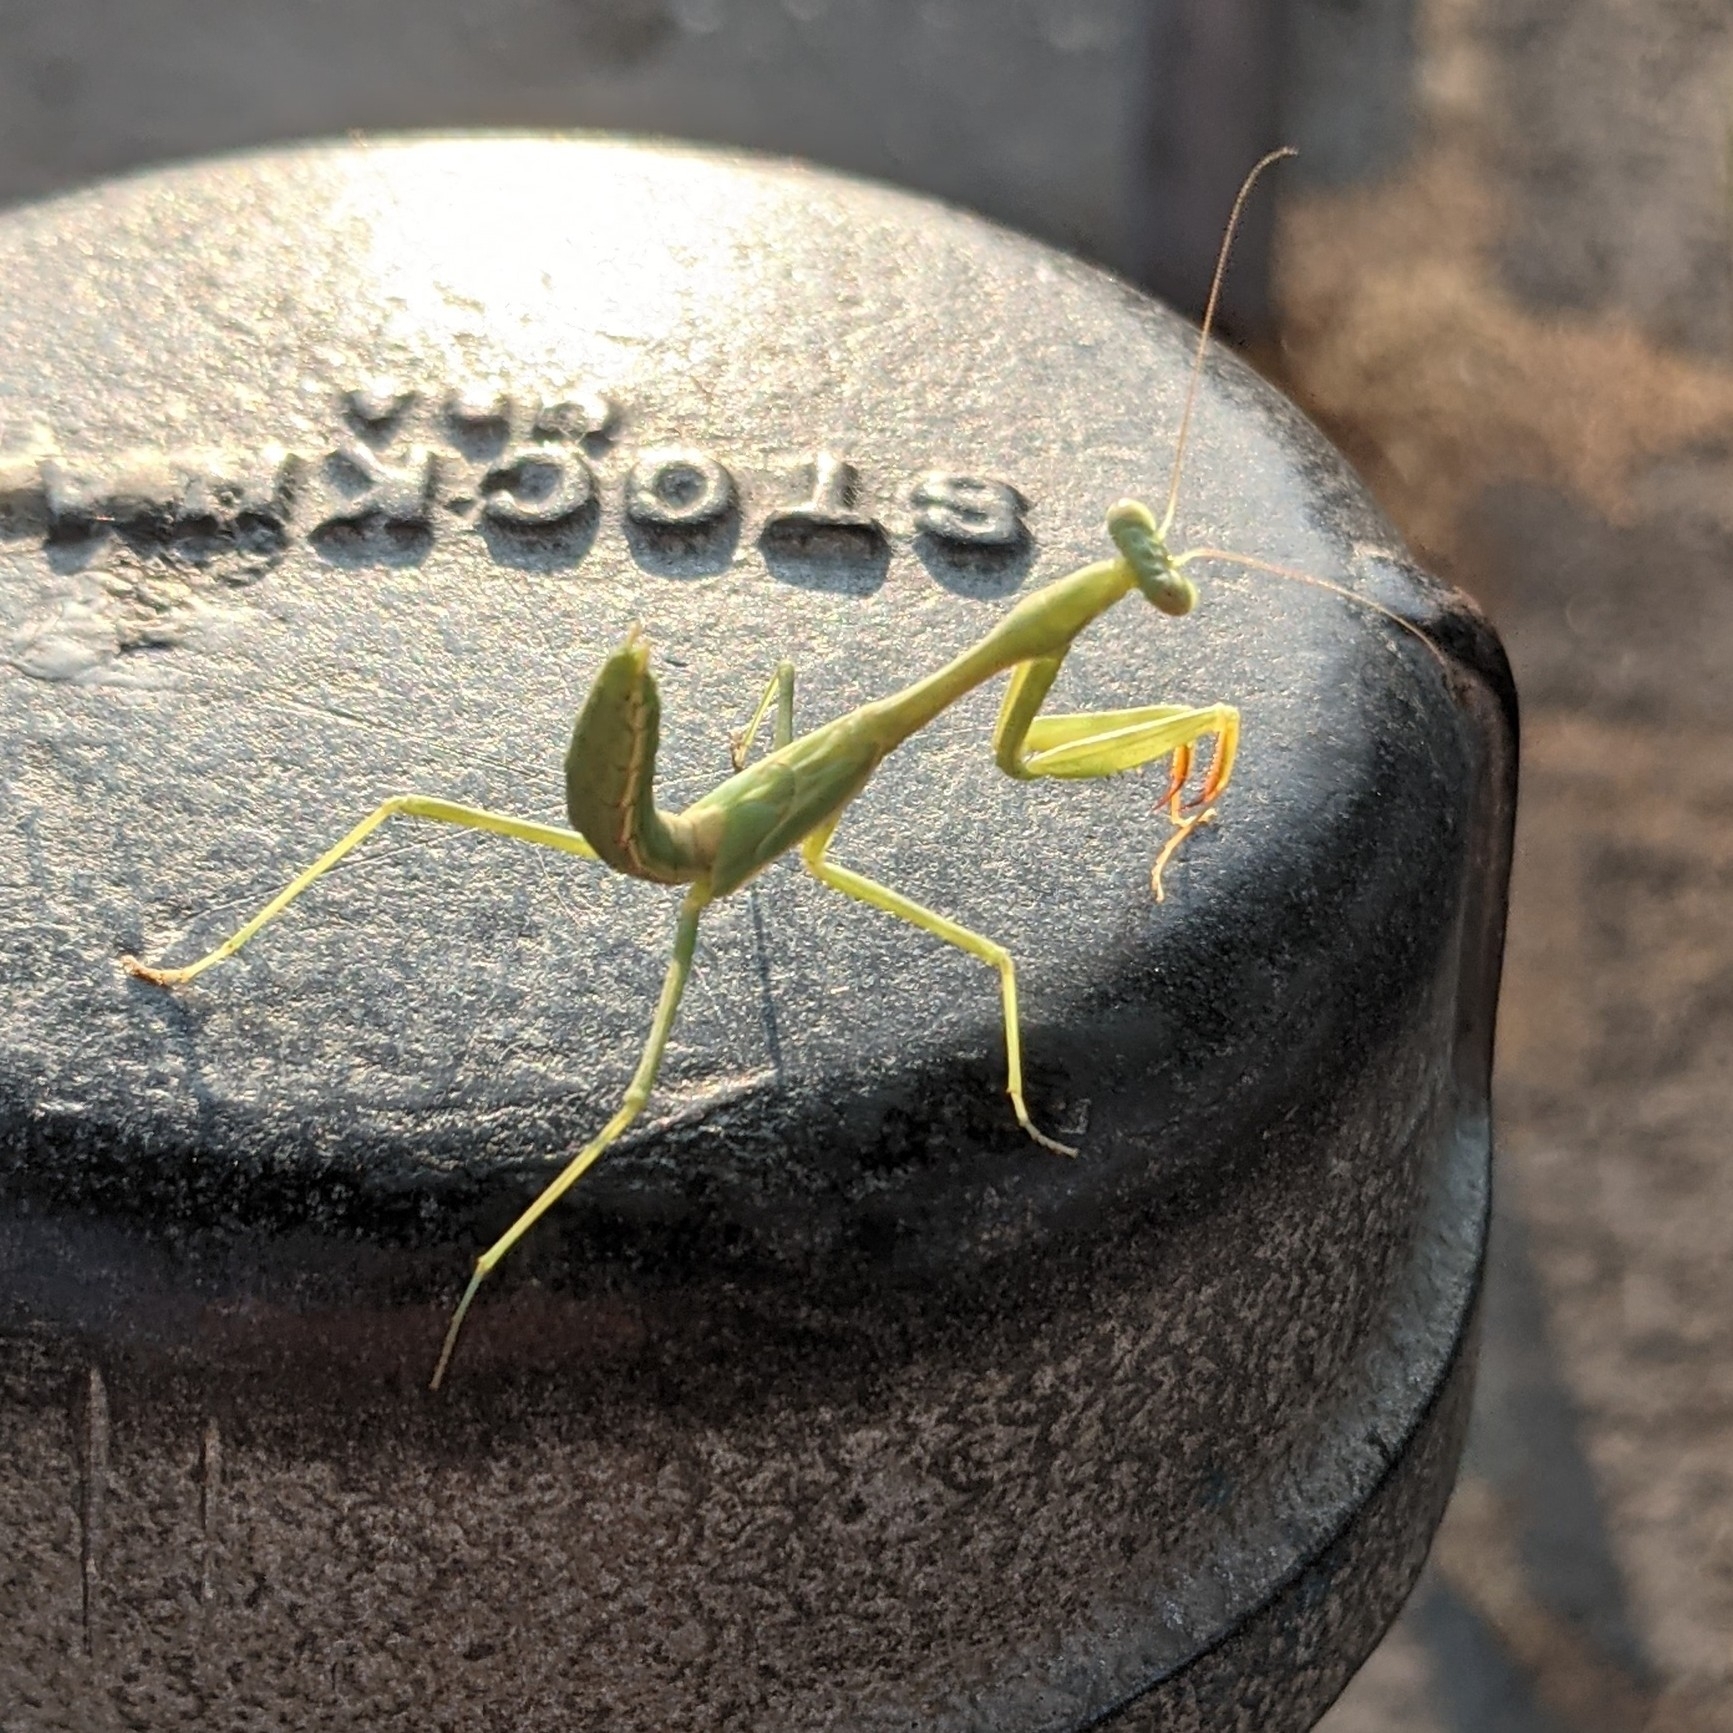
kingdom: Animalia
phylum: Arthropoda
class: Insecta
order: Mantodea
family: Mantidae
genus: Stagmomantis
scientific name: Stagmomantis limbata
